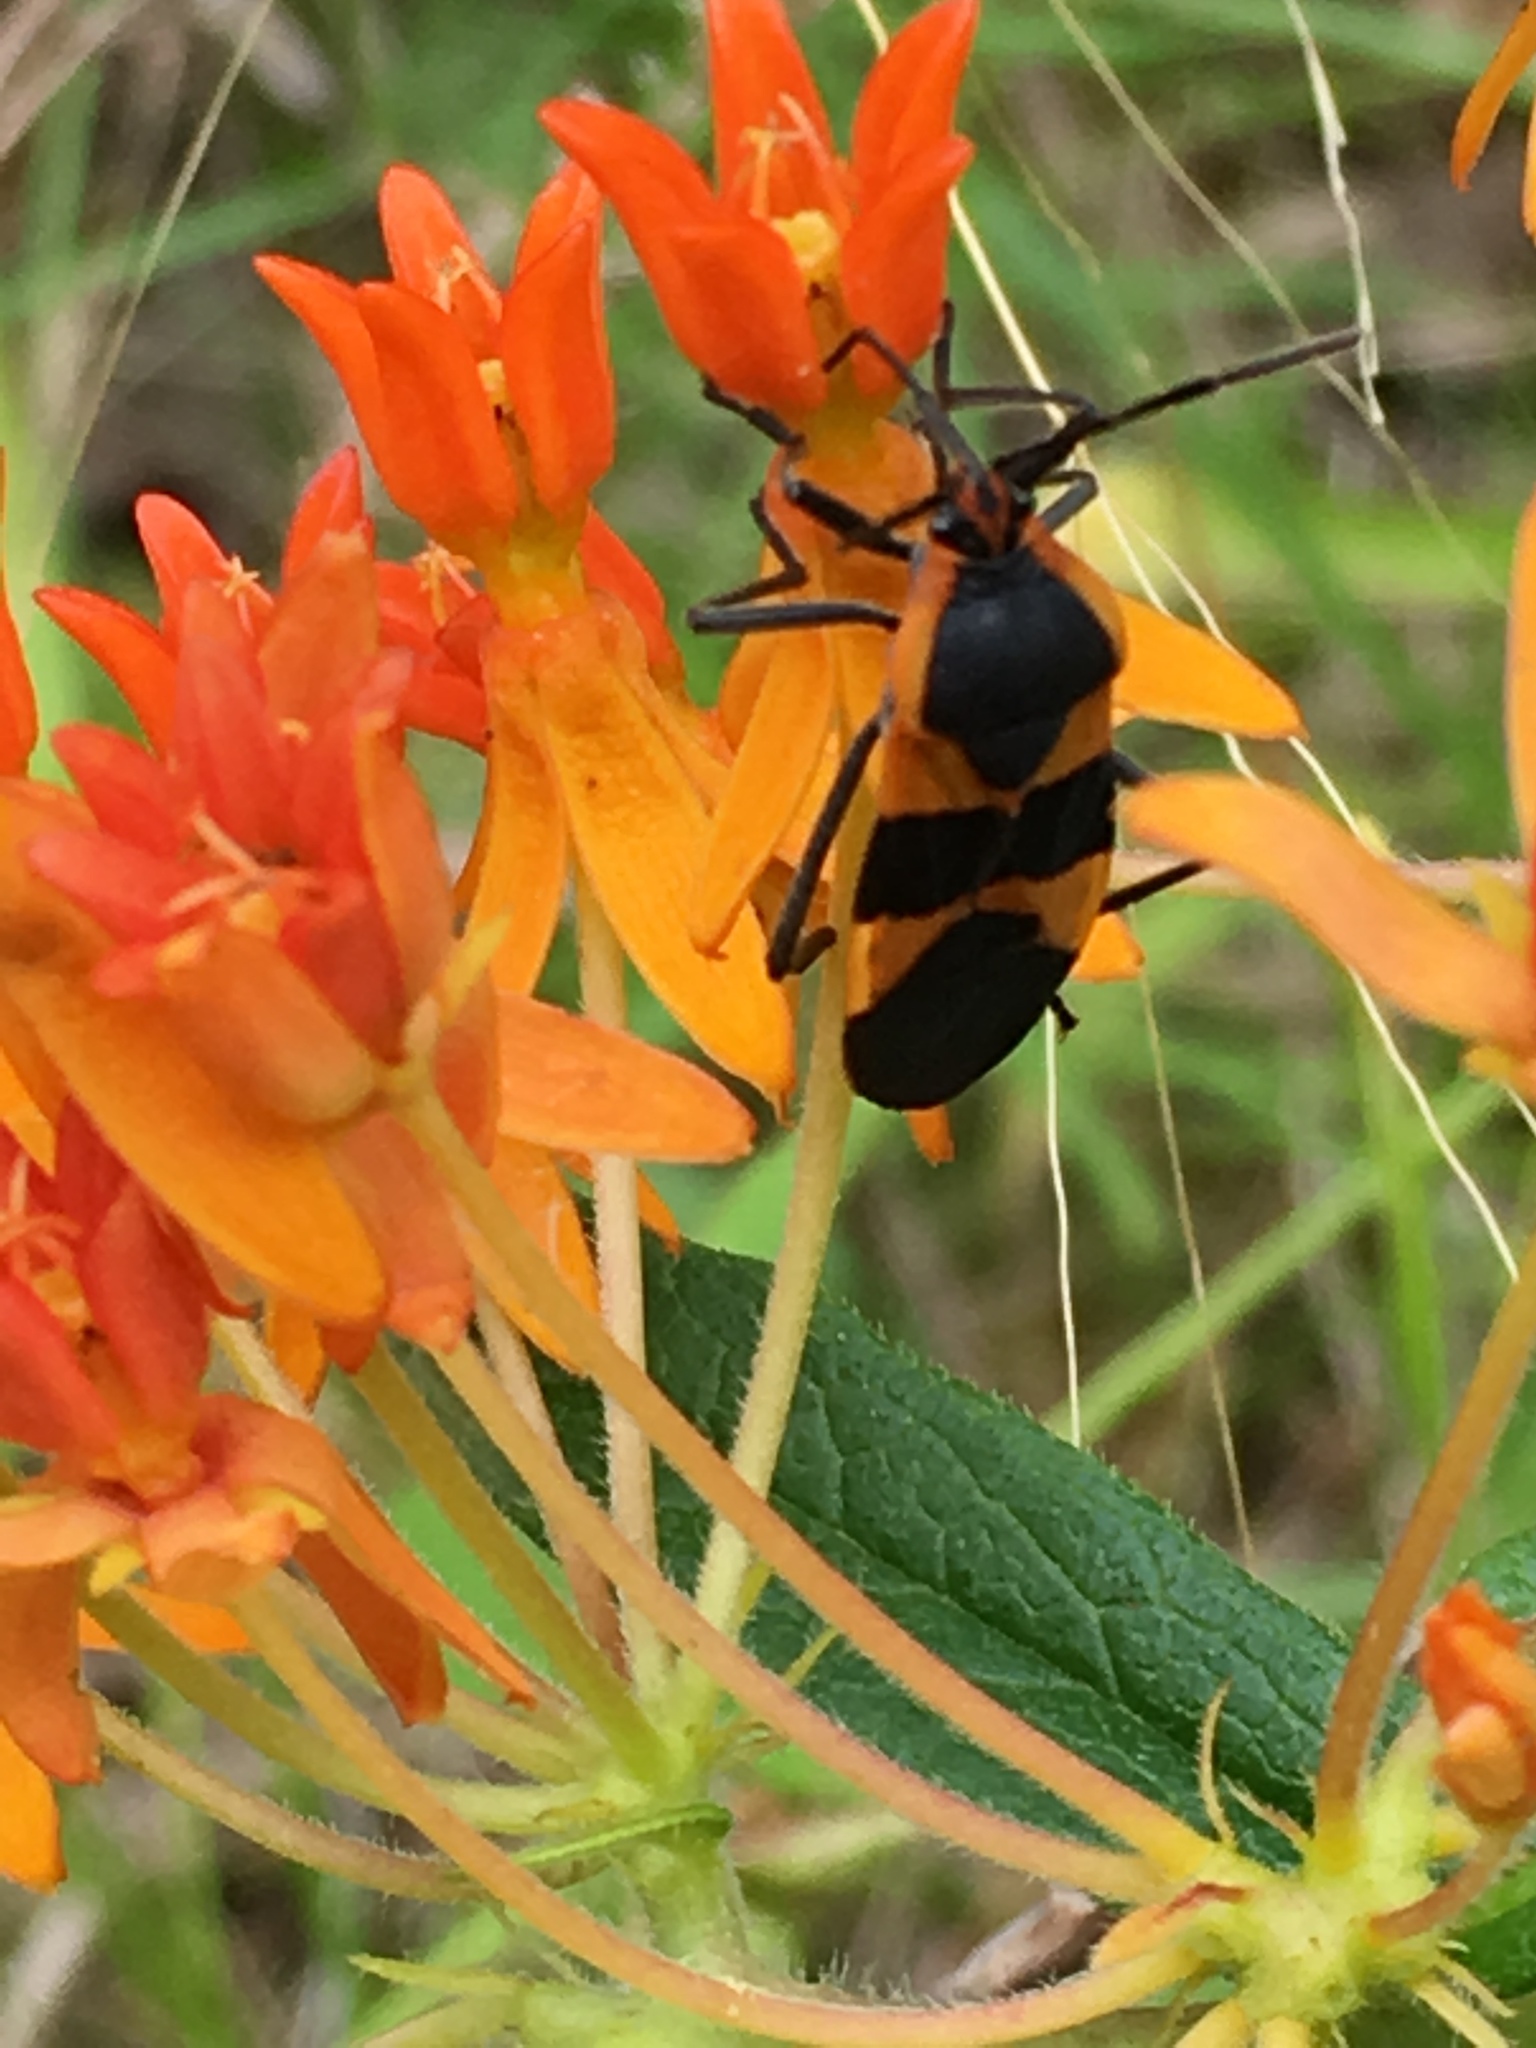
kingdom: Animalia
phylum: Arthropoda
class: Insecta
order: Hemiptera
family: Lygaeidae
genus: Oncopeltus
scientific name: Oncopeltus fasciatus
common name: Large milkweed bug
